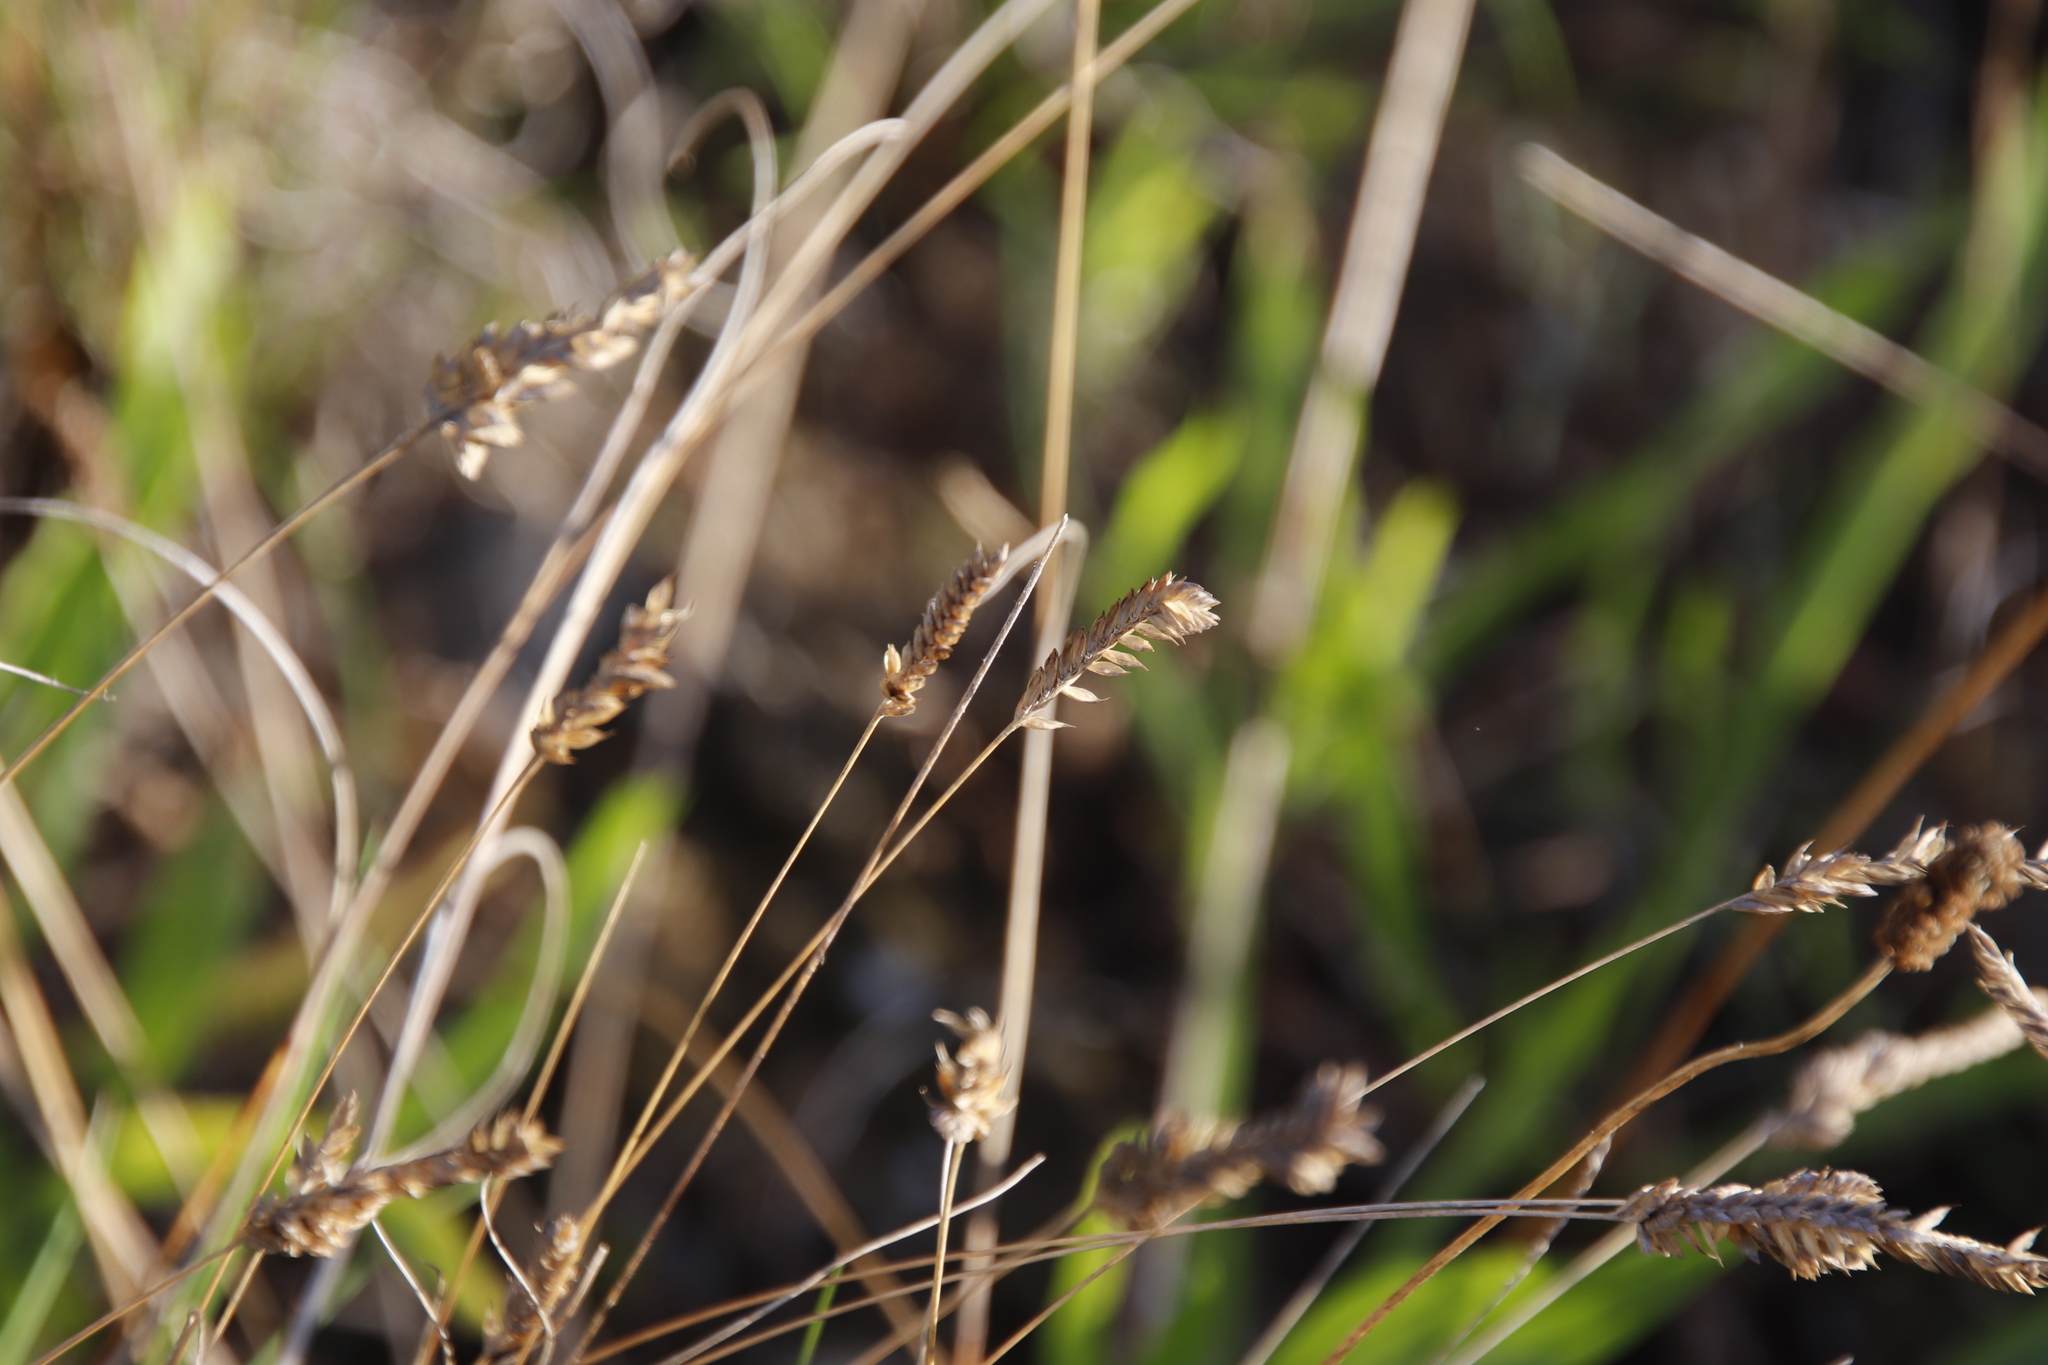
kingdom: Plantae
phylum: Tracheophyta
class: Liliopsida
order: Poales
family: Poaceae
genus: Tribolium
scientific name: Tribolium uniolae
